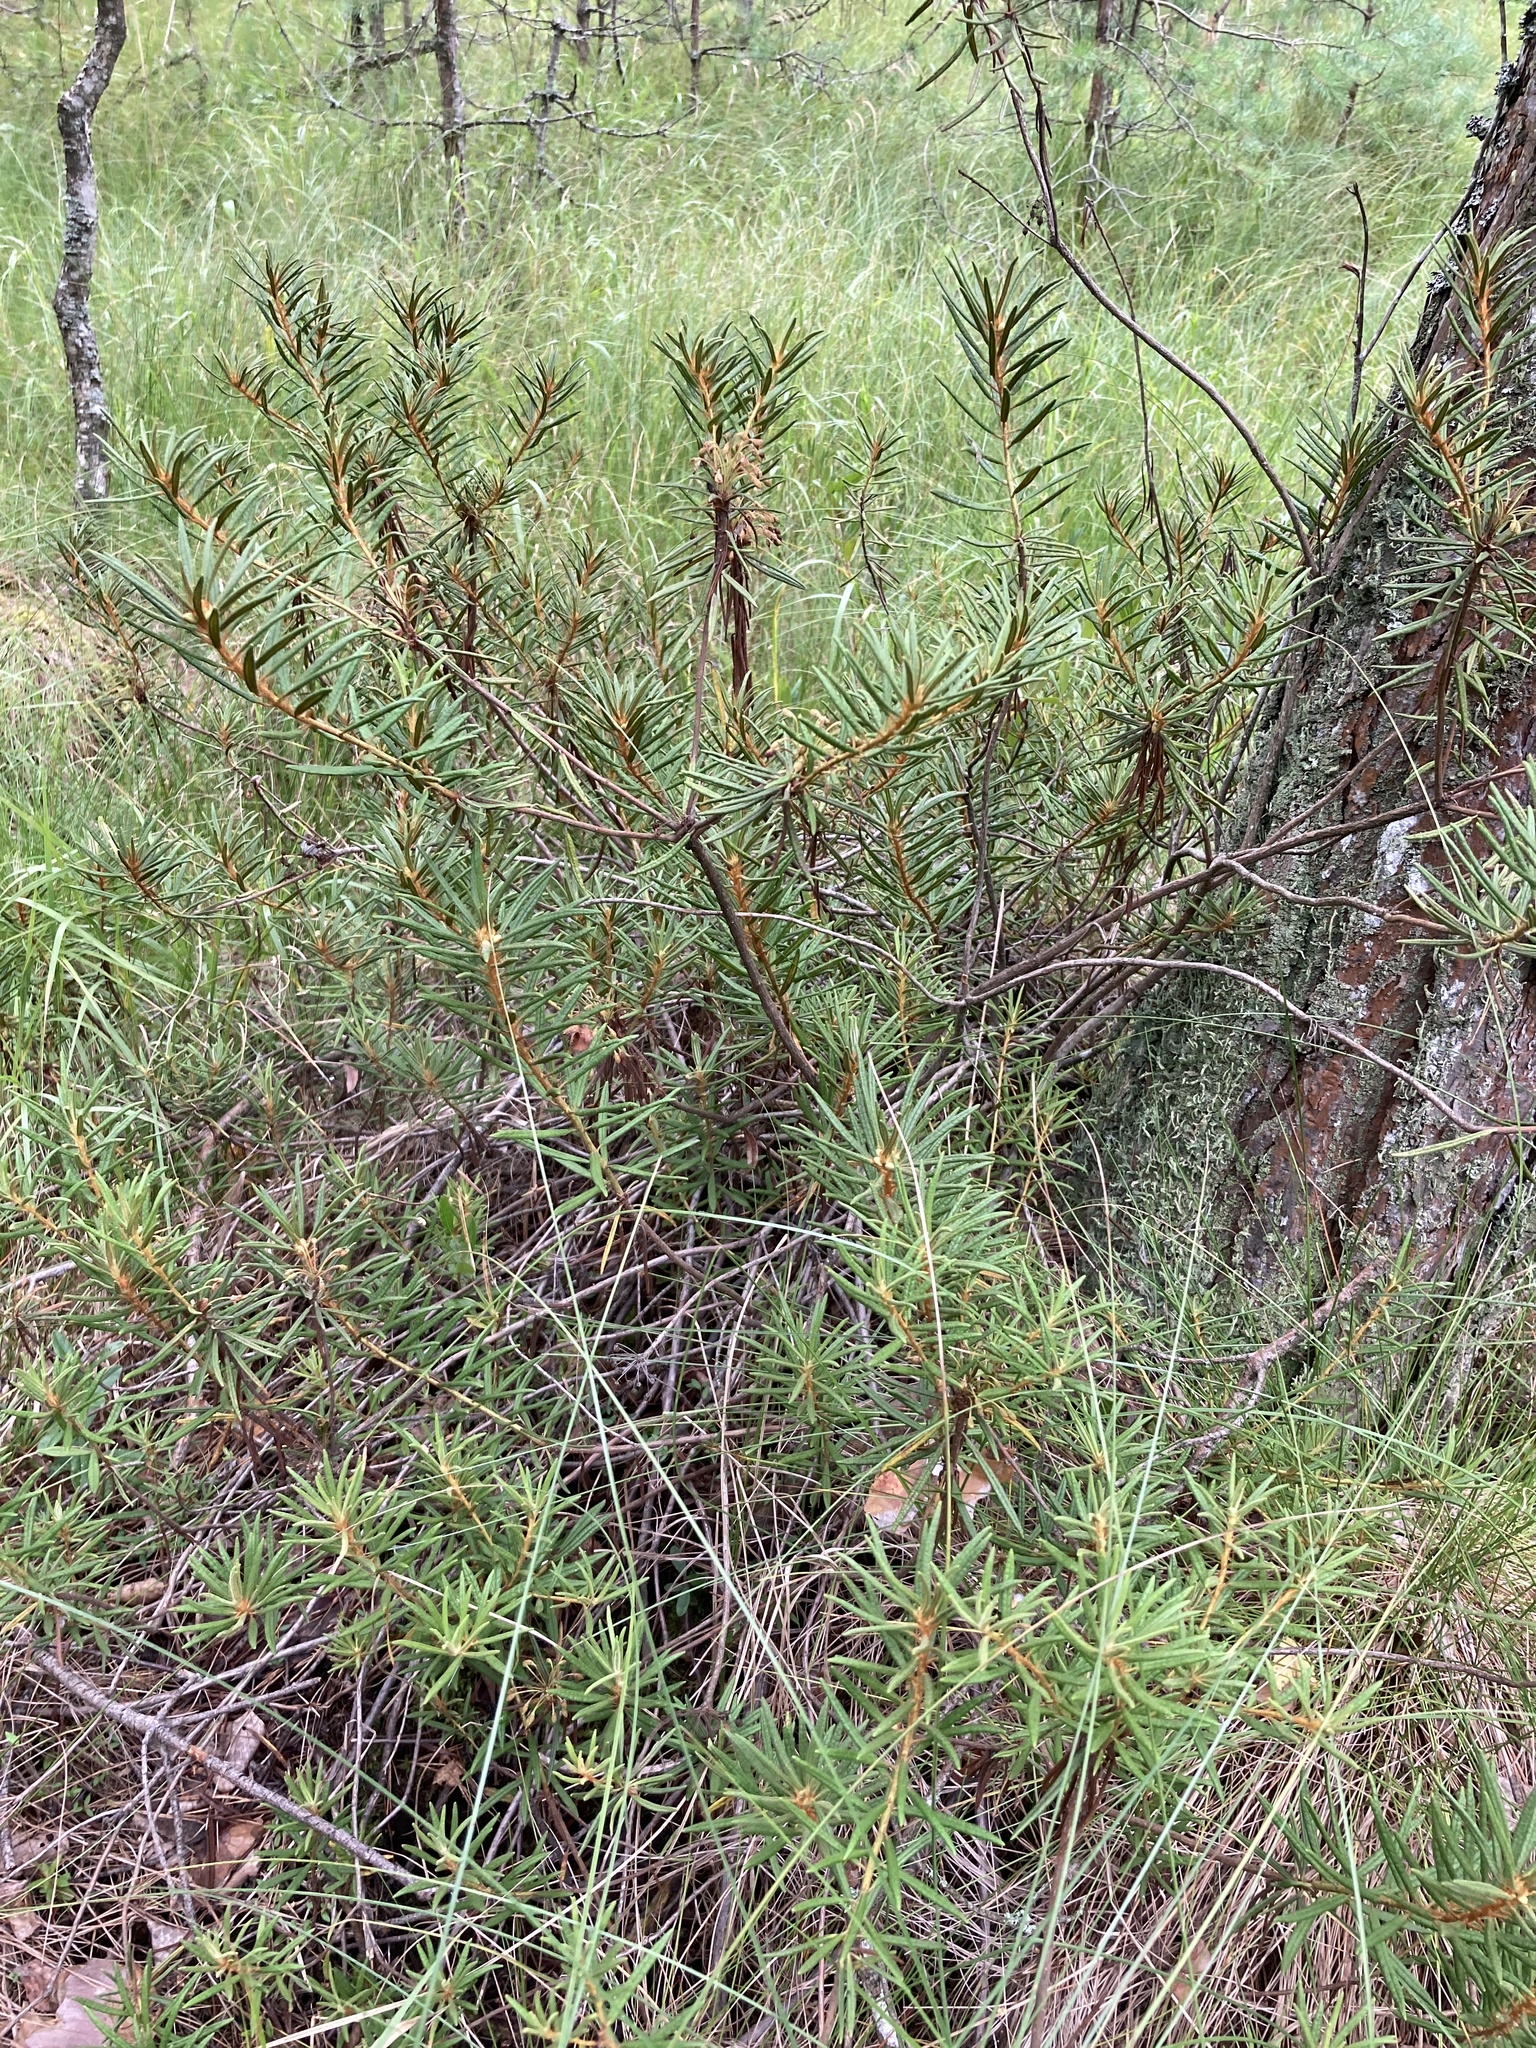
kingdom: Plantae
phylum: Tracheophyta
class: Magnoliopsida
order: Ericales
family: Ericaceae
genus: Rhododendron
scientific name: Rhododendron tomentosum
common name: Marsh labrador tea
